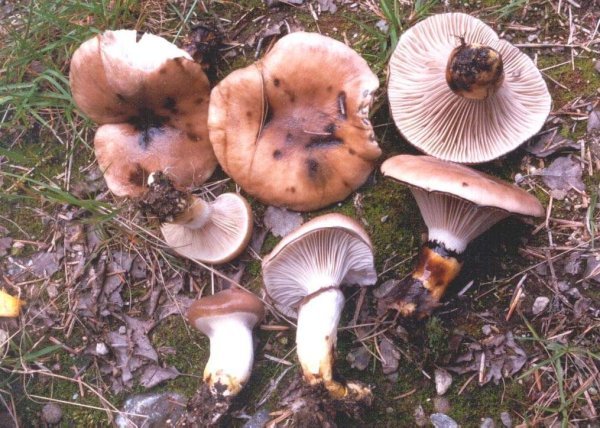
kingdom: Fungi
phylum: Basidiomycota
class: Agaricomycetes
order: Boletales
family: Gomphidiaceae
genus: Gomphidius
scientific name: Gomphidius glutinosus
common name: Slimy spike
